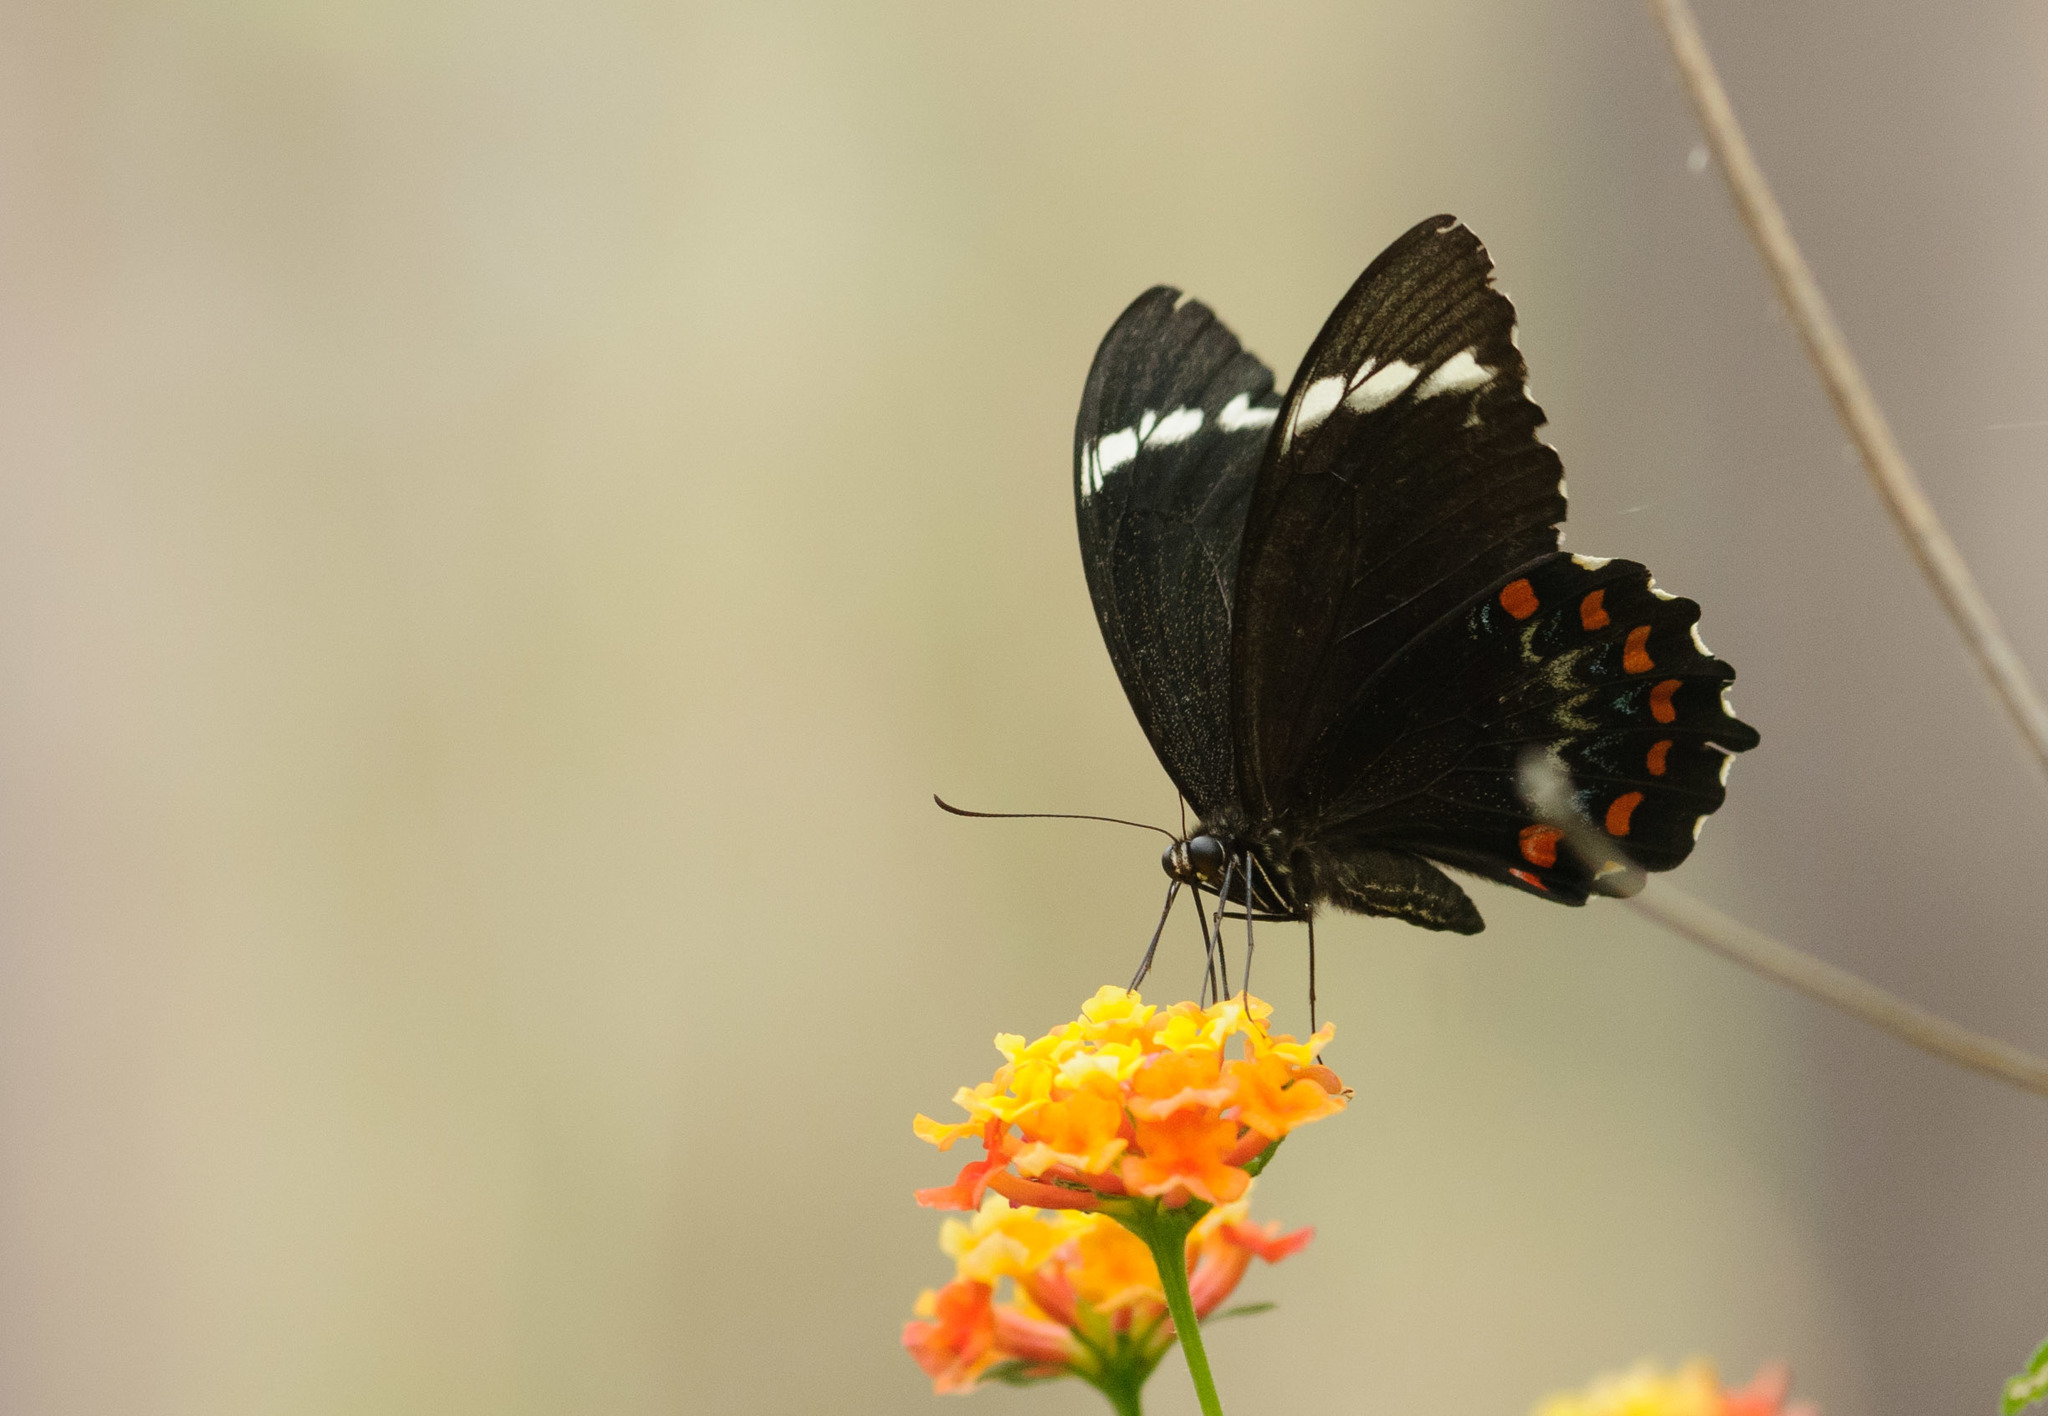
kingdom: Animalia
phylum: Arthropoda
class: Insecta
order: Lepidoptera
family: Papilionidae
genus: Papilio
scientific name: Papilio aegeus
